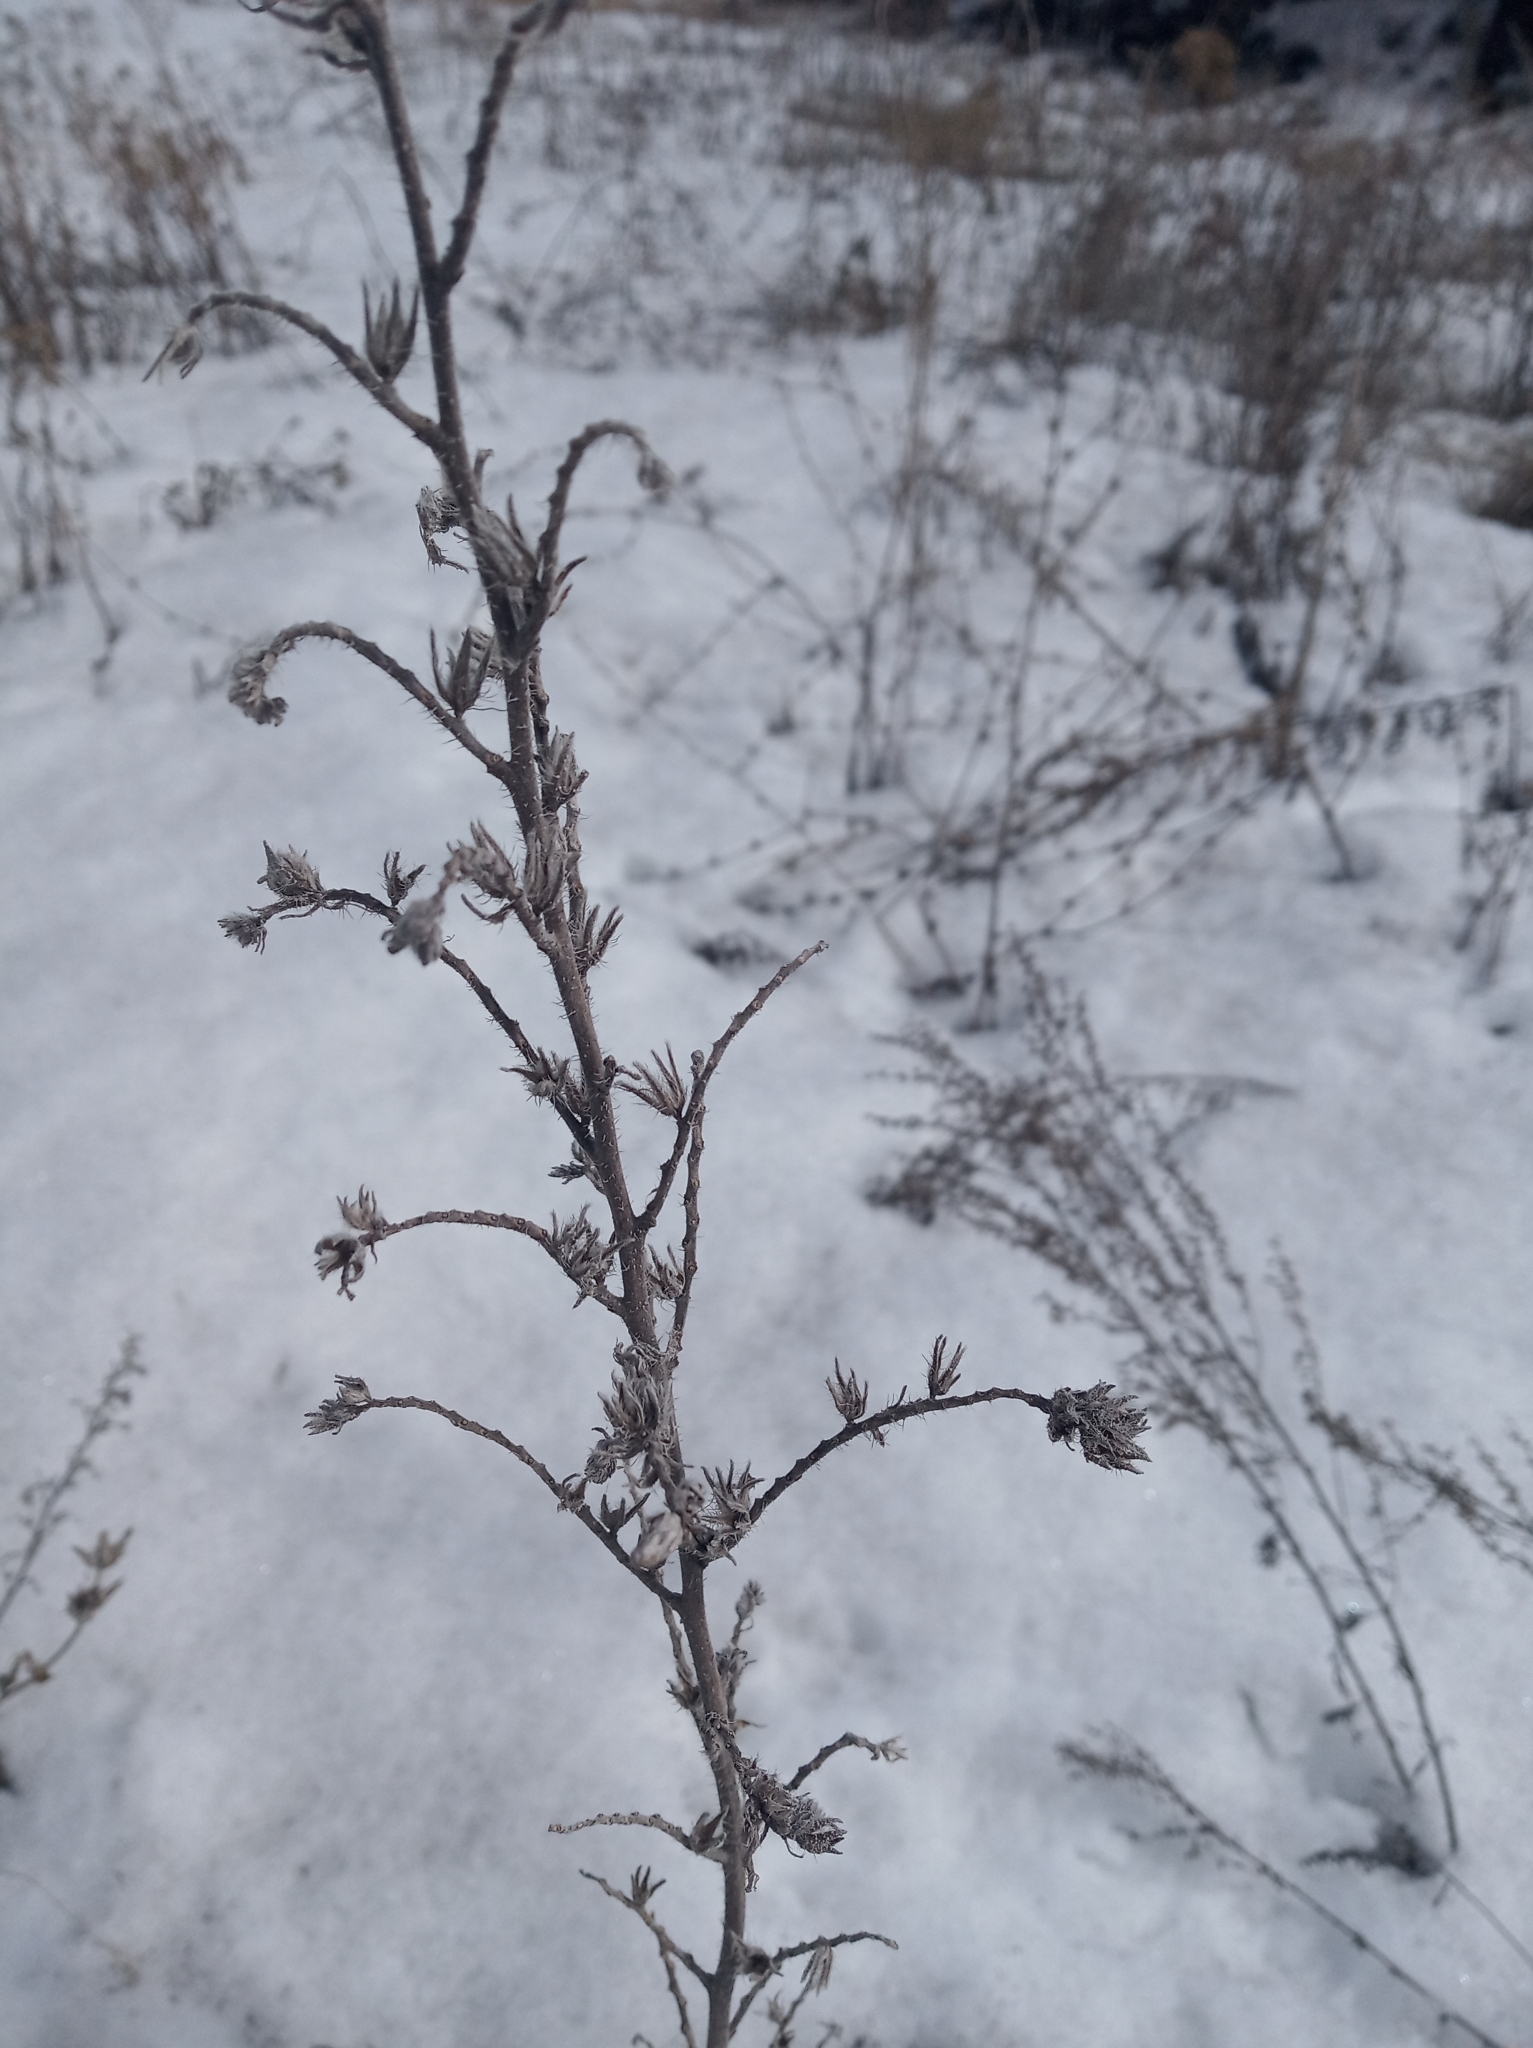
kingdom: Plantae
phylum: Tracheophyta
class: Magnoliopsida
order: Boraginales
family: Boraginaceae
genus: Echium
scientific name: Echium vulgare
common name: Common viper's bugloss
